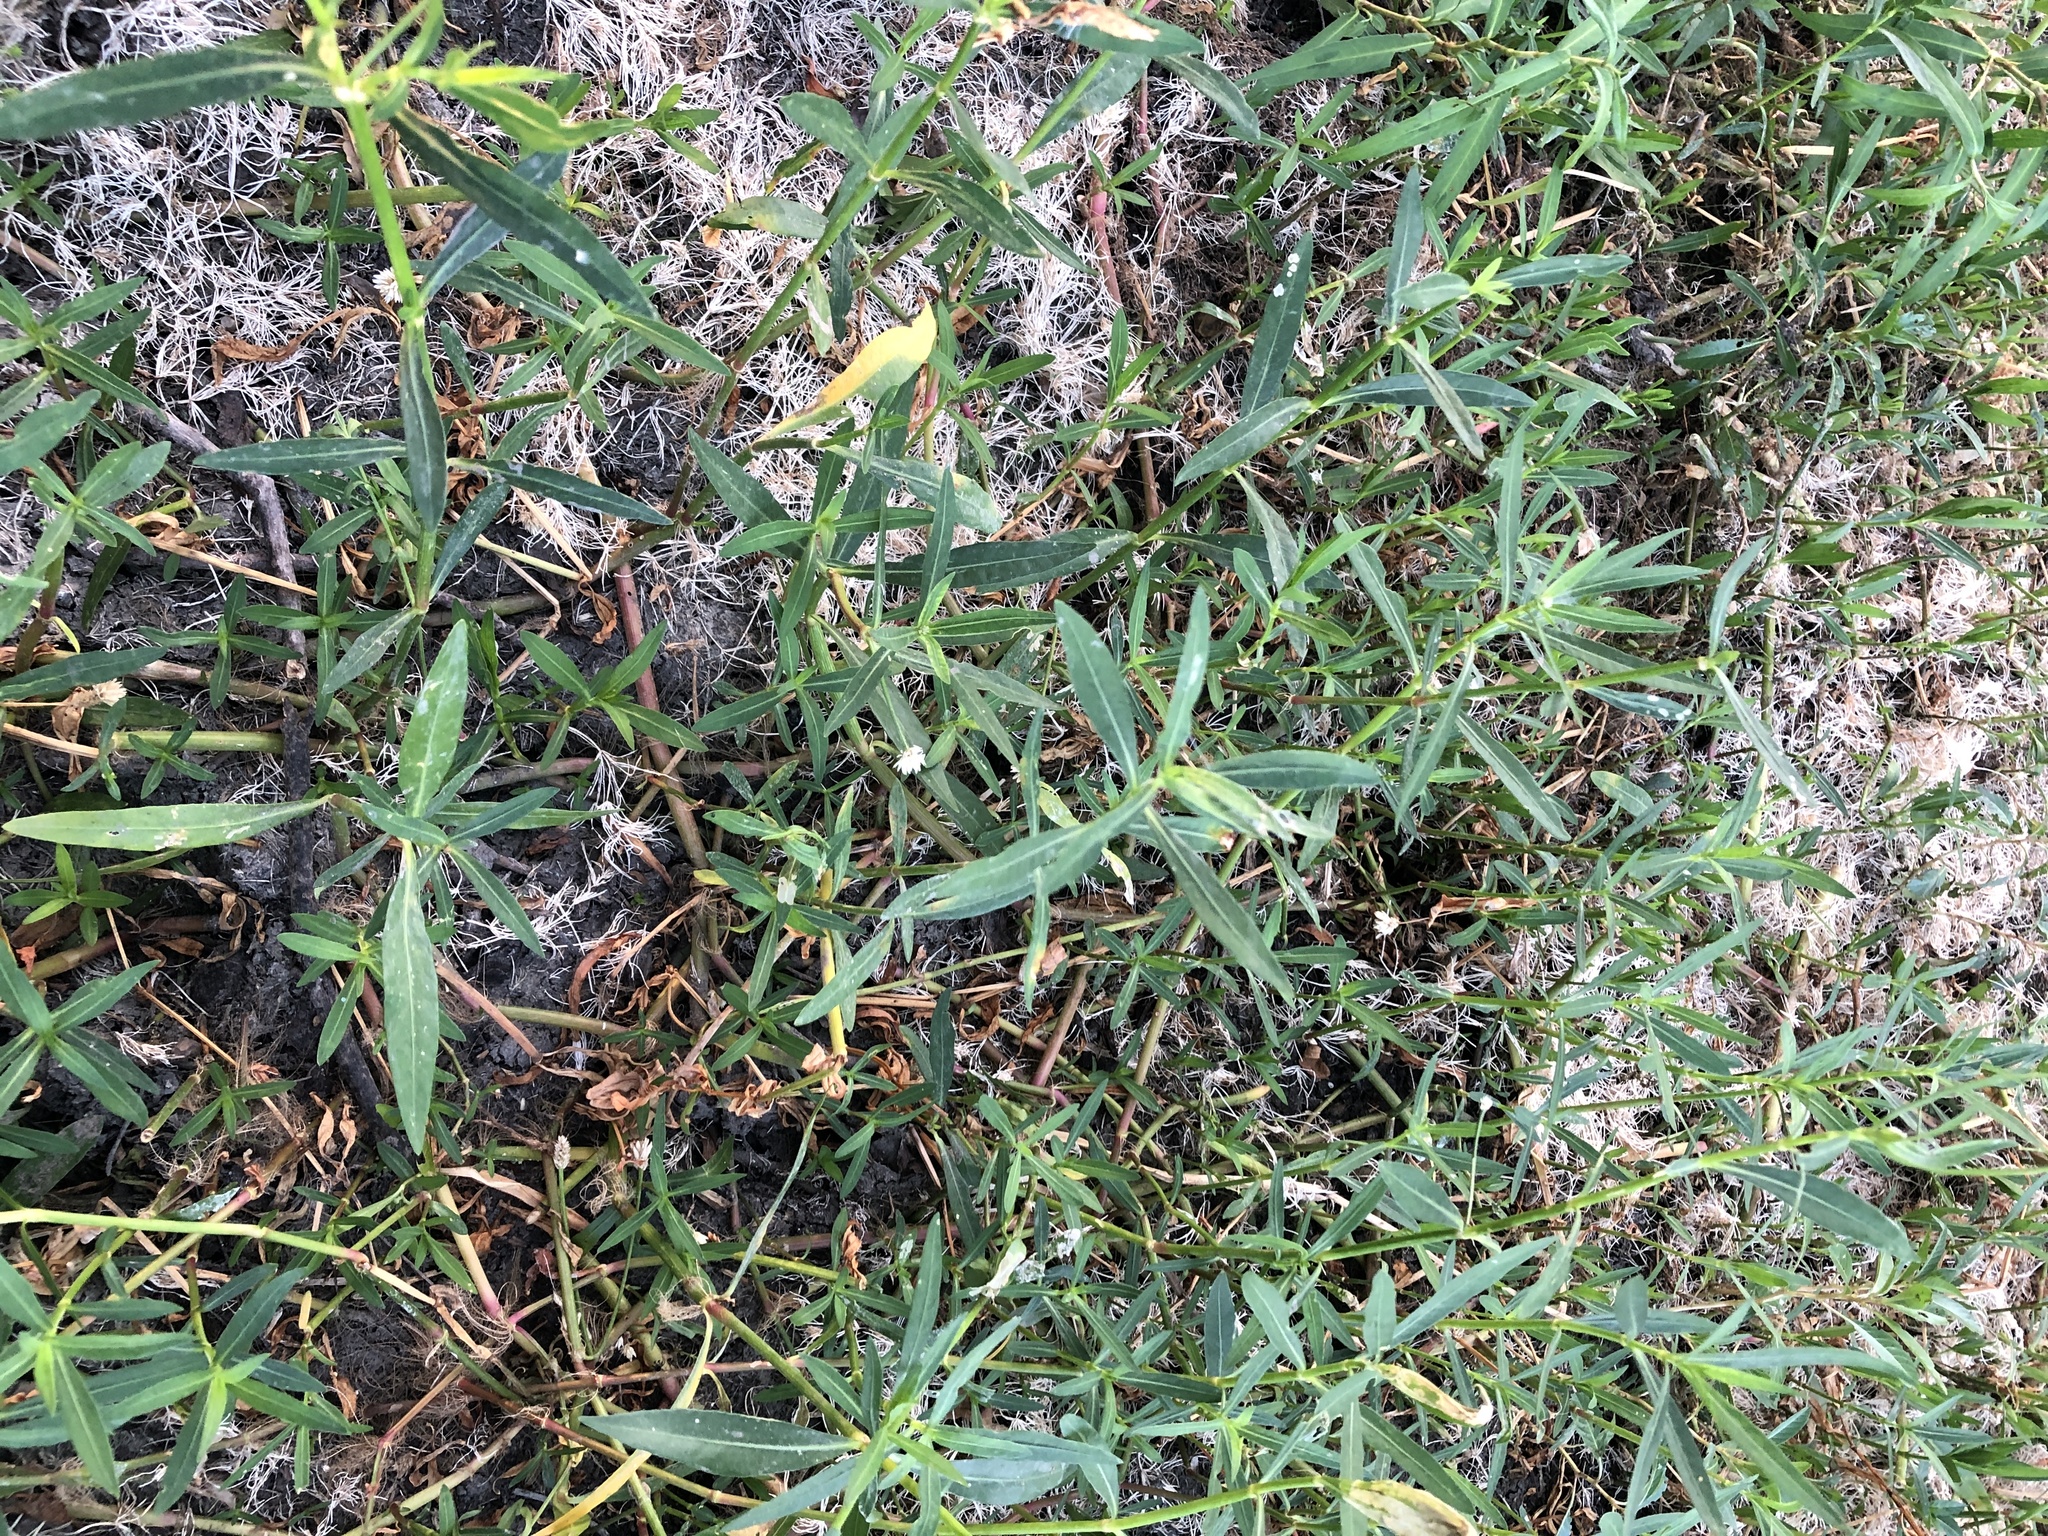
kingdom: Plantae
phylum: Tracheophyta
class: Magnoliopsida
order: Caryophyllales
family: Amaranthaceae
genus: Alternanthera
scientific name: Alternanthera philoxeroides
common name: Alligatorweed
